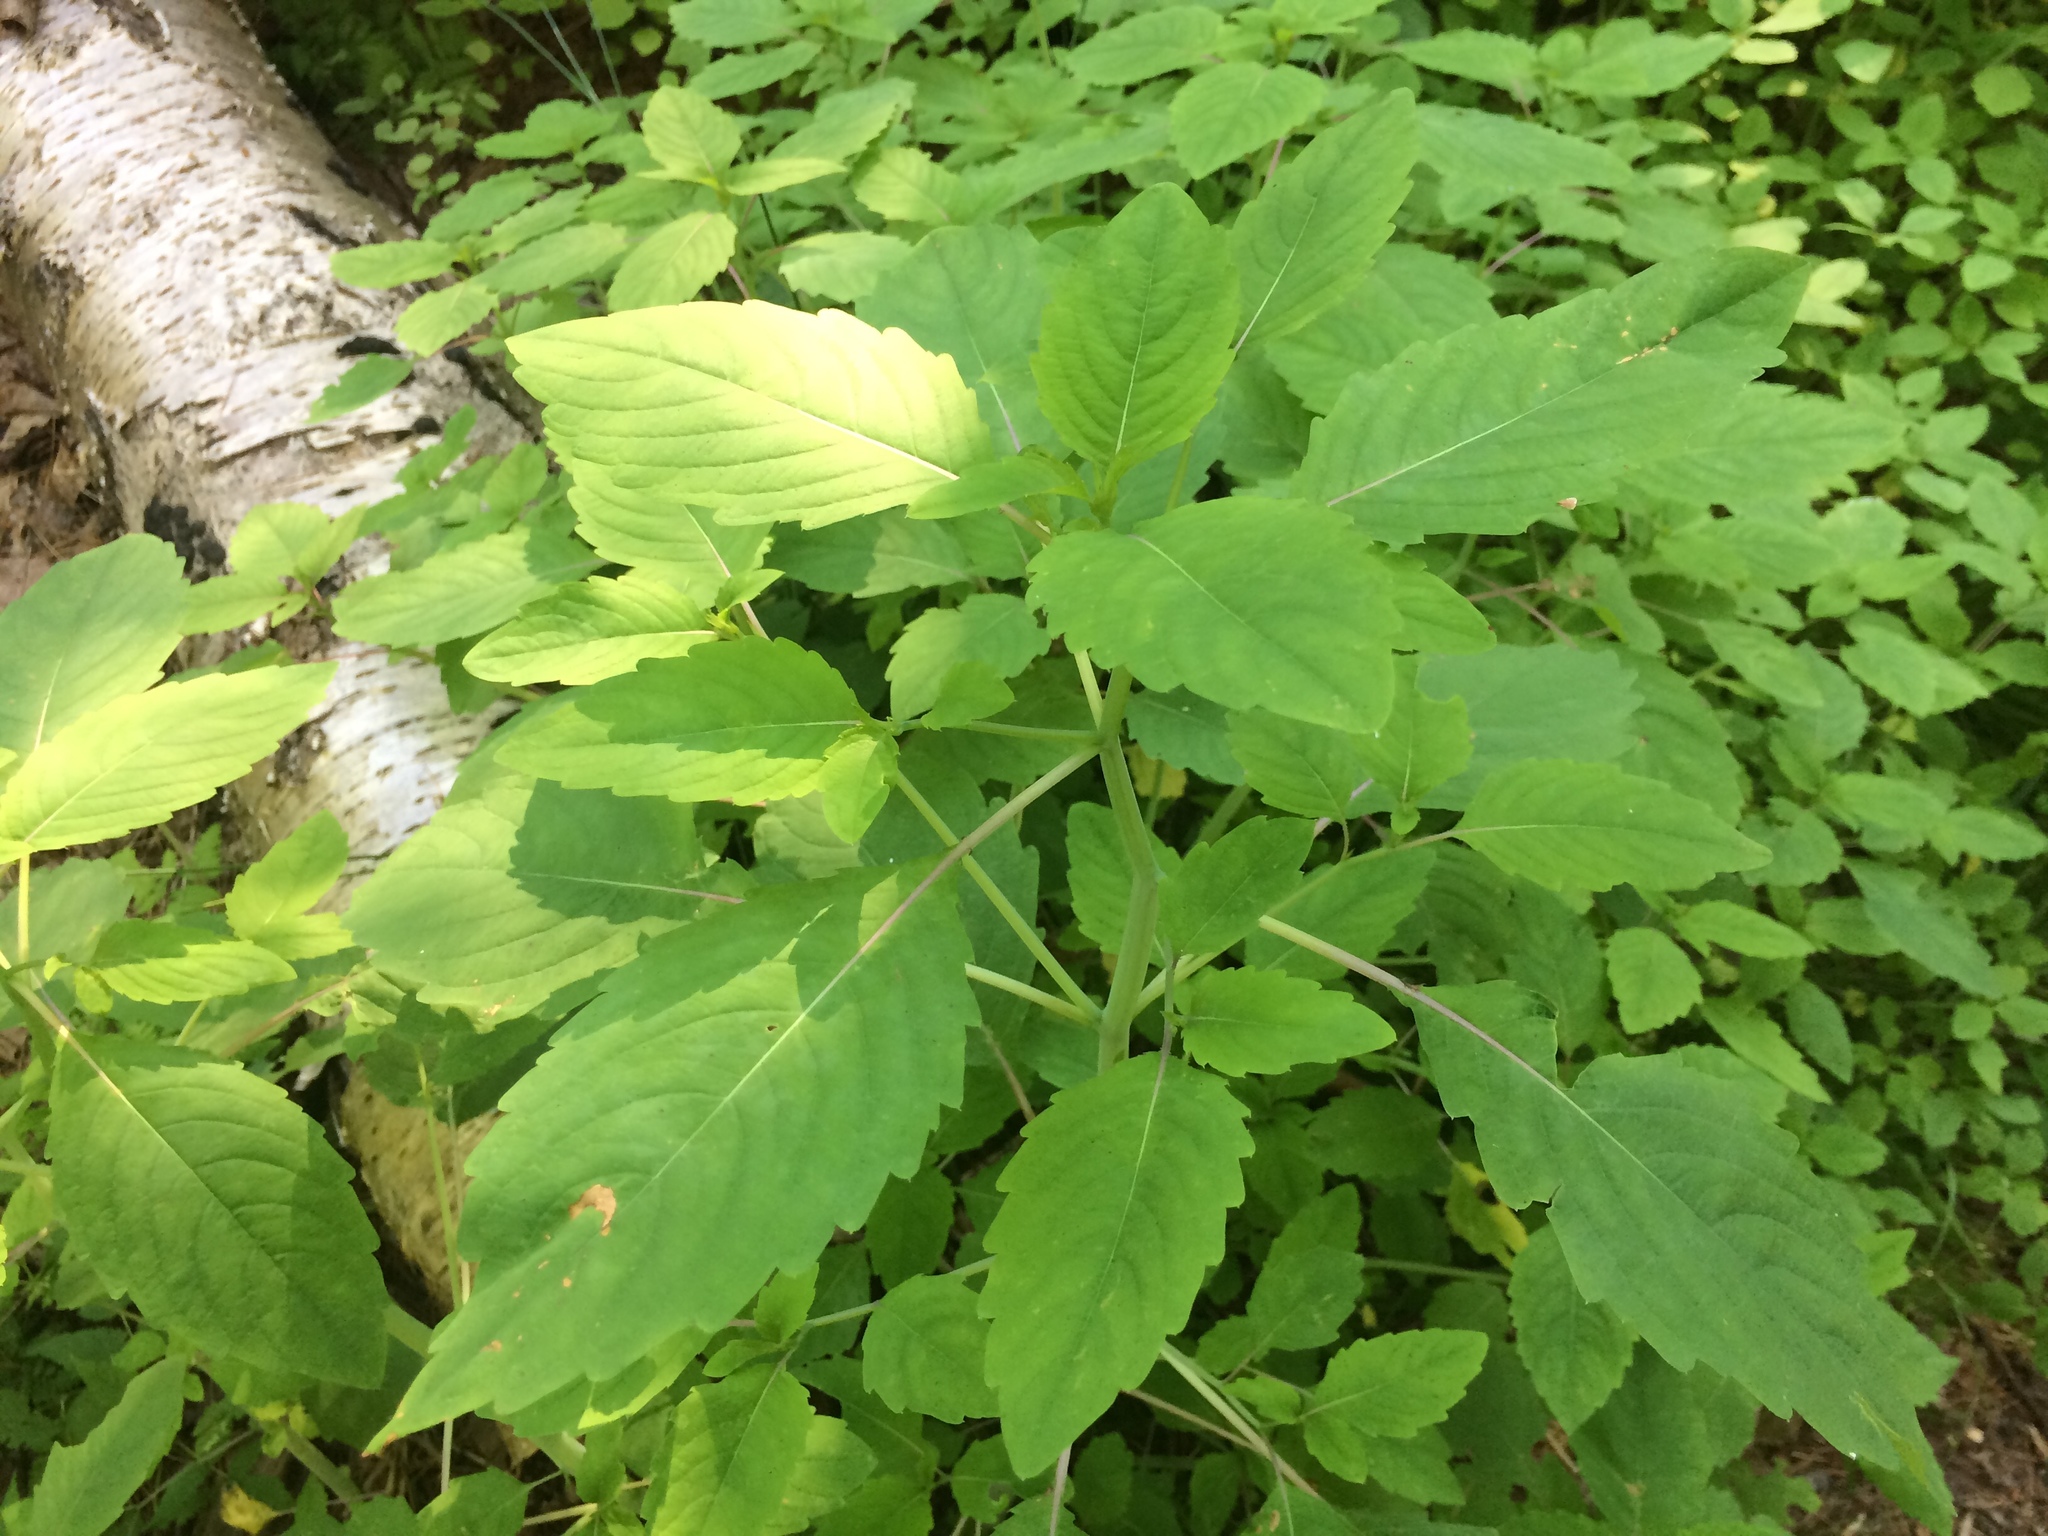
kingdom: Plantae
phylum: Tracheophyta
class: Magnoliopsida
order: Ericales
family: Balsaminaceae
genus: Impatiens
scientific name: Impatiens capensis
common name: Orange balsam
